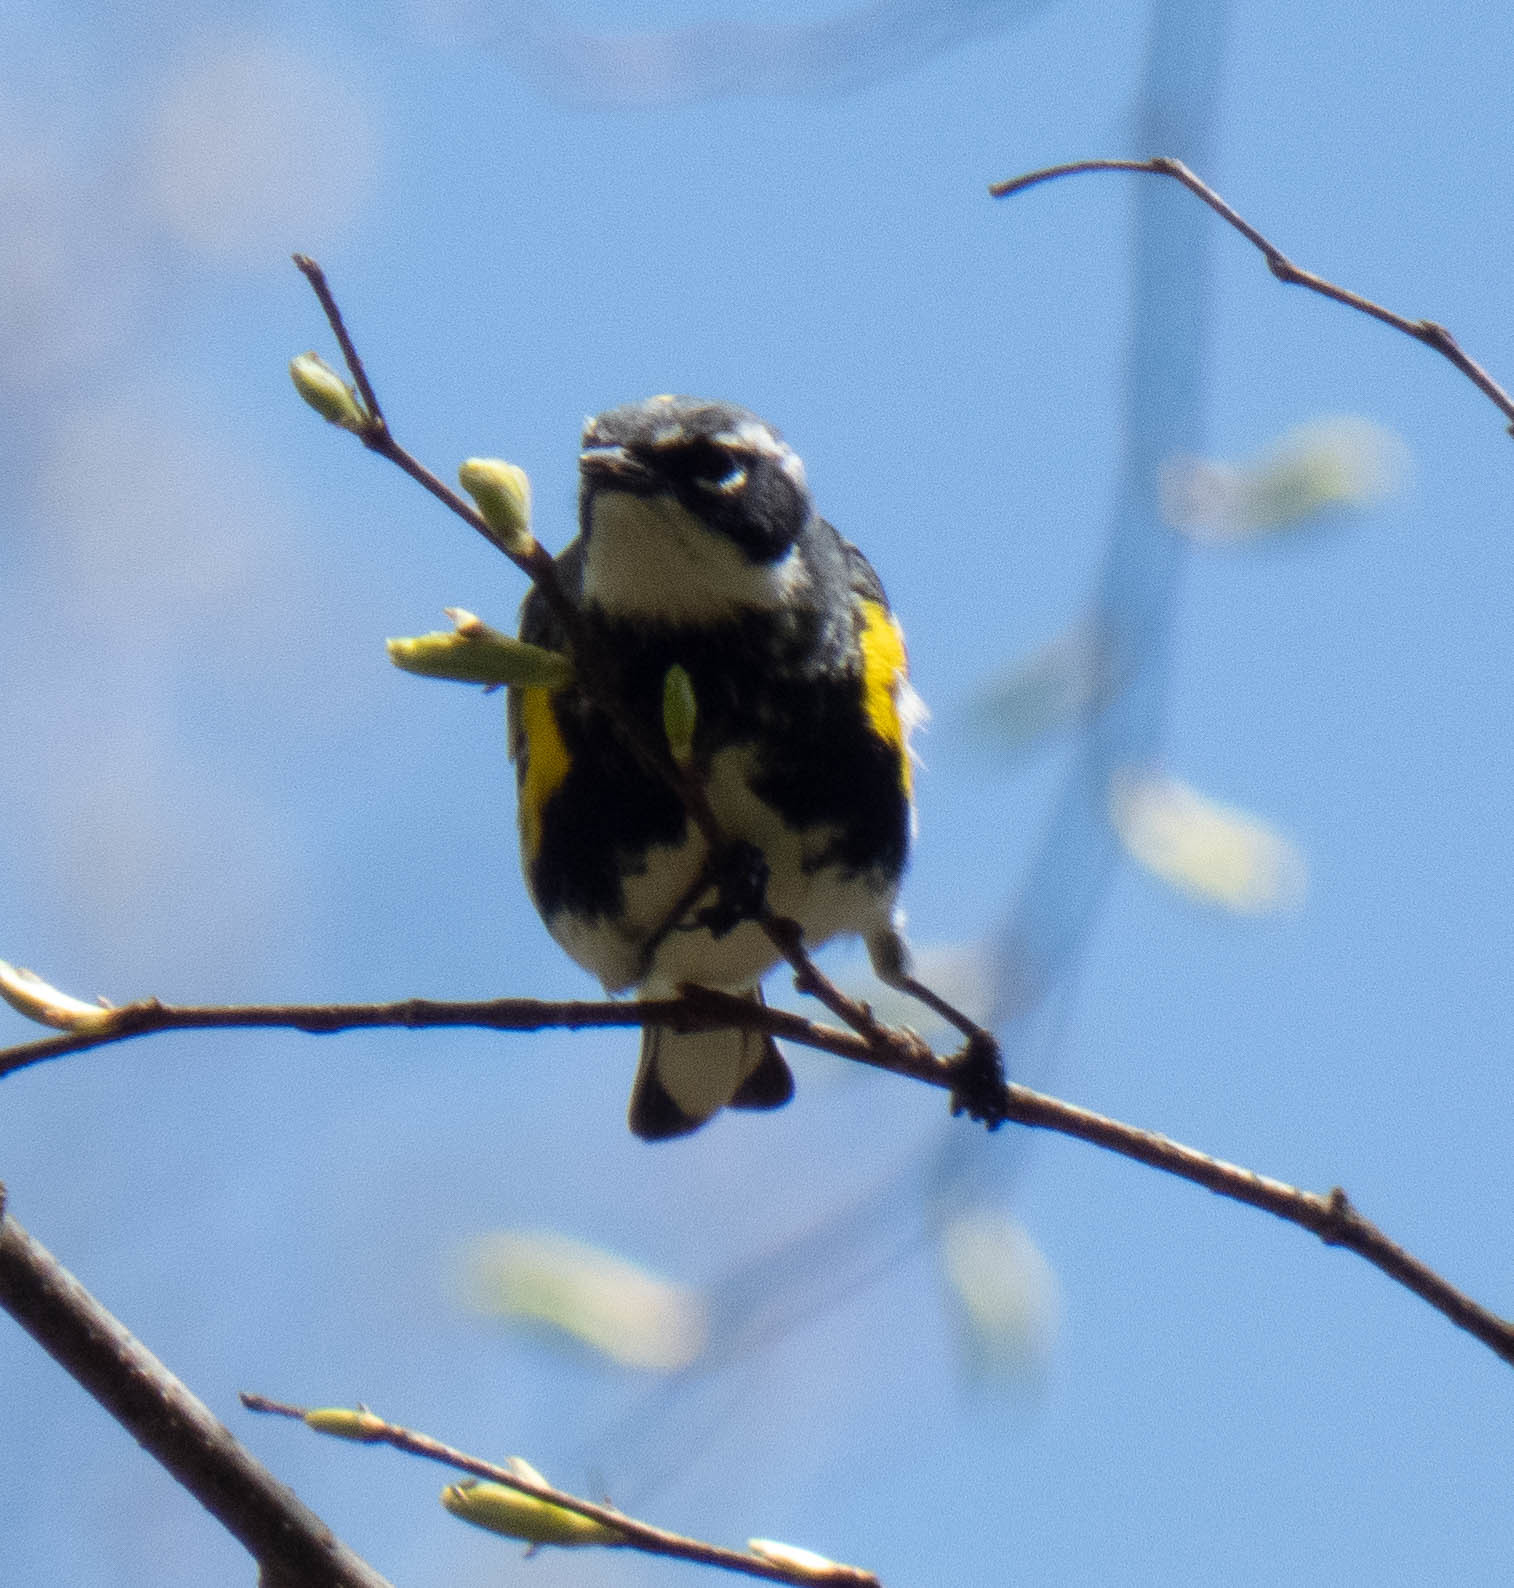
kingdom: Animalia
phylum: Chordata
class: Aves
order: Passeriformes
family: Parulidae
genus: Setophaga
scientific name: Setophaga coronata
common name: Myrtle warbler
